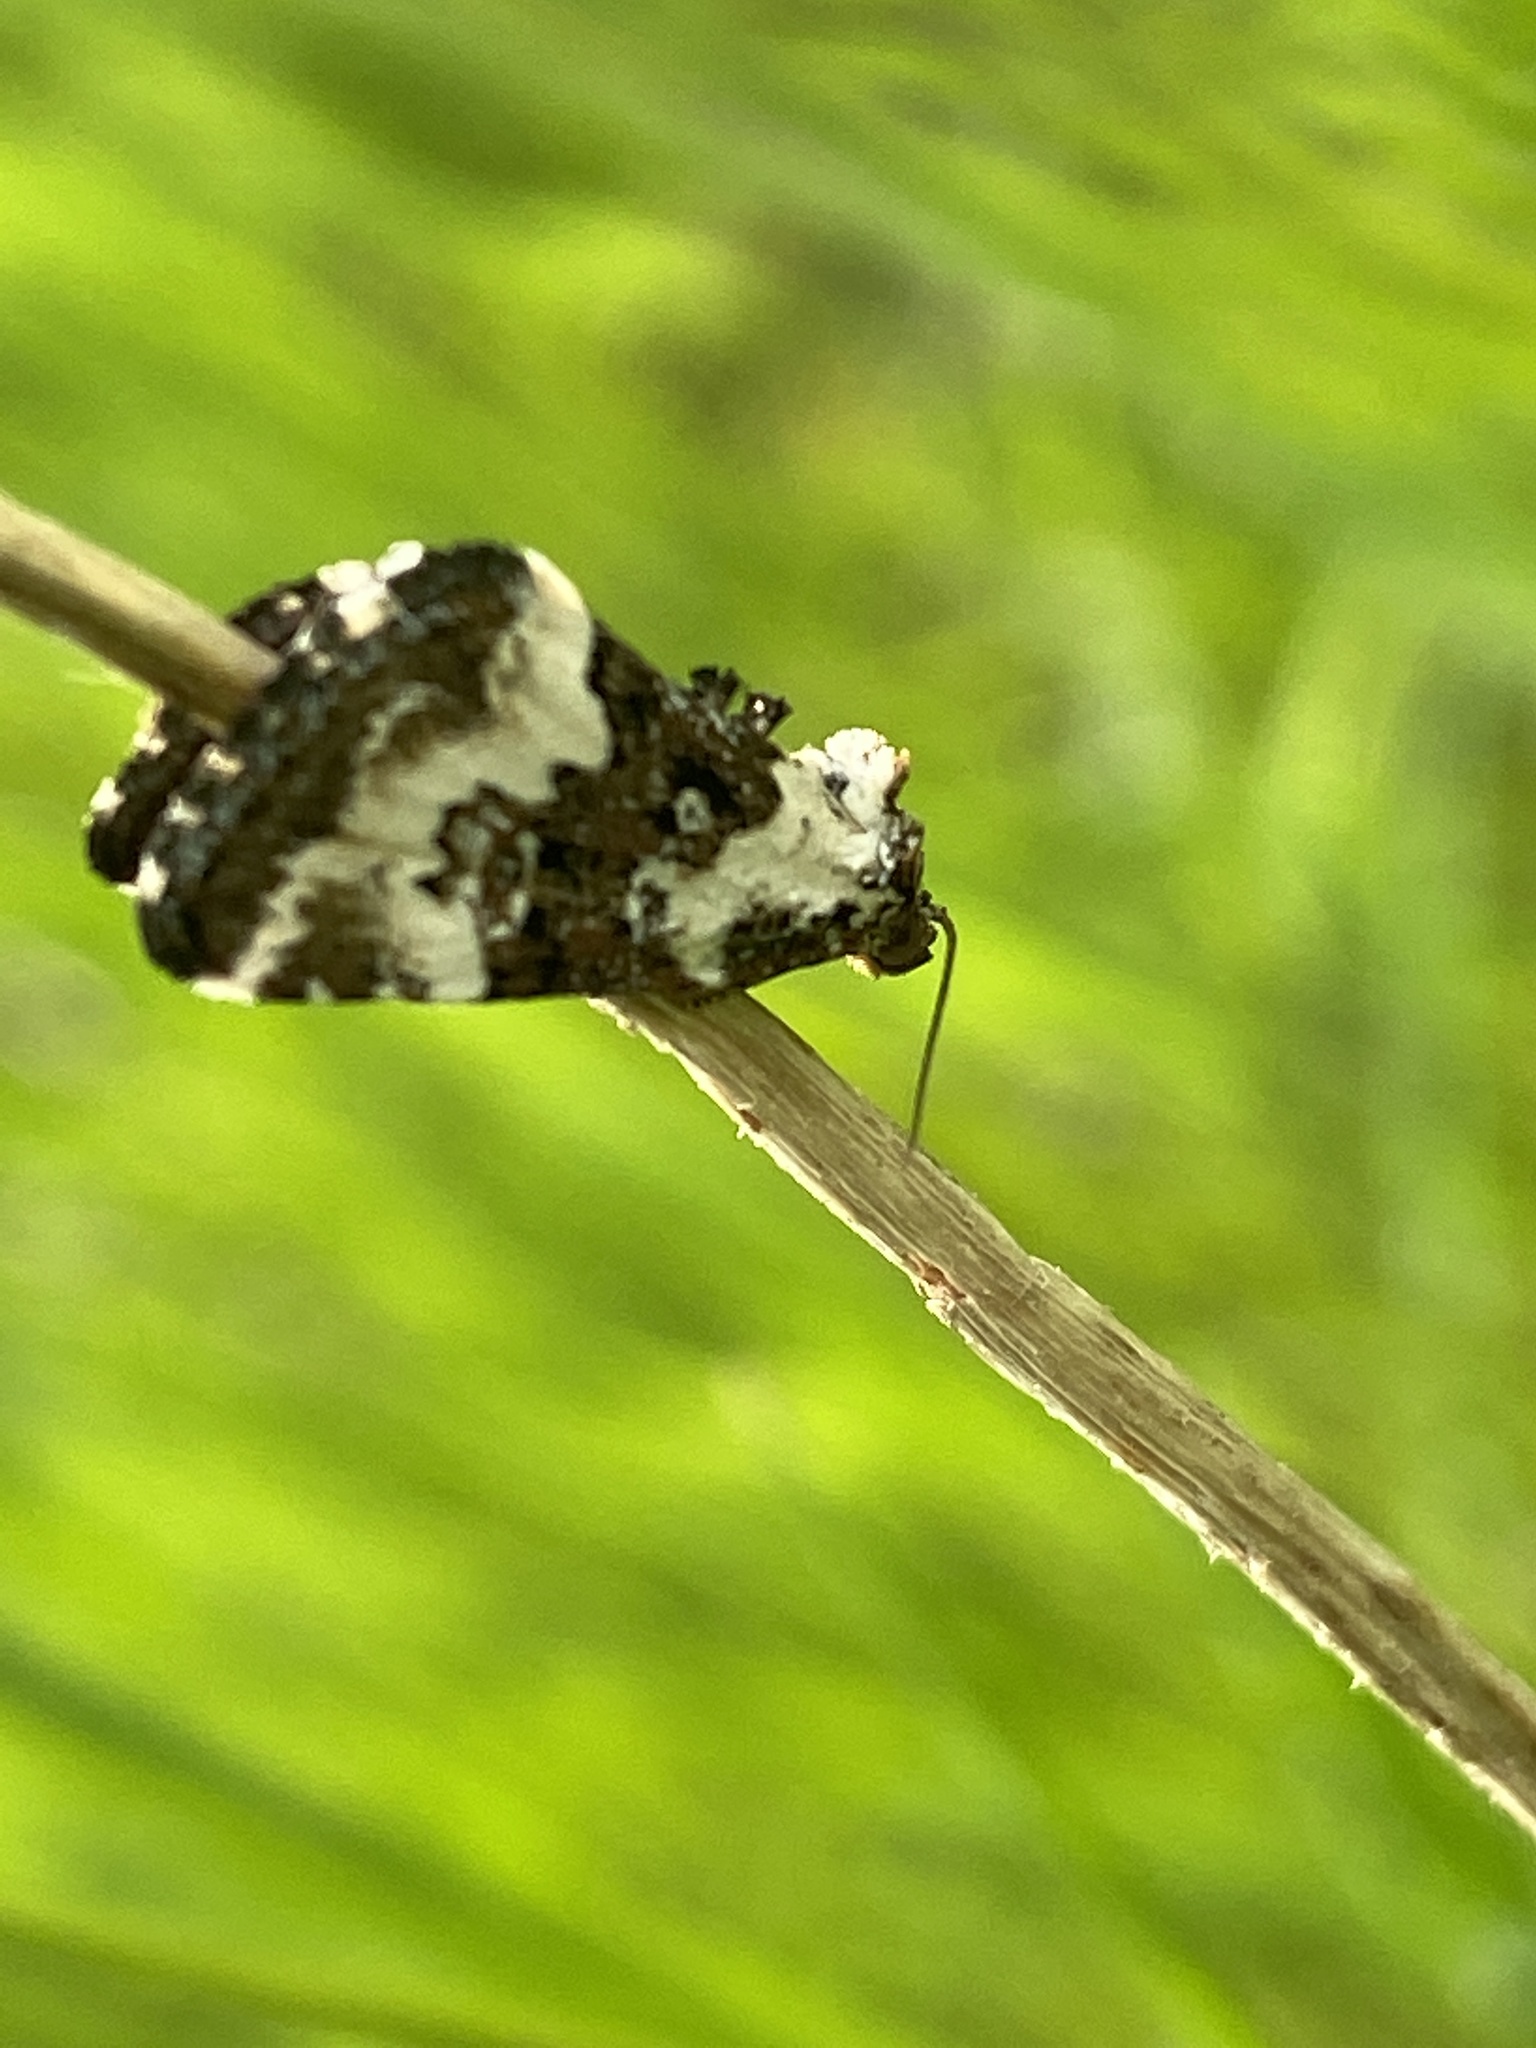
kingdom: Animalia
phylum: Arthropoda
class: Insecta
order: Lepidoptera
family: Noctuidae
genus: Deltote
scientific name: Deltote deceptoria
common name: Pretty marbled
